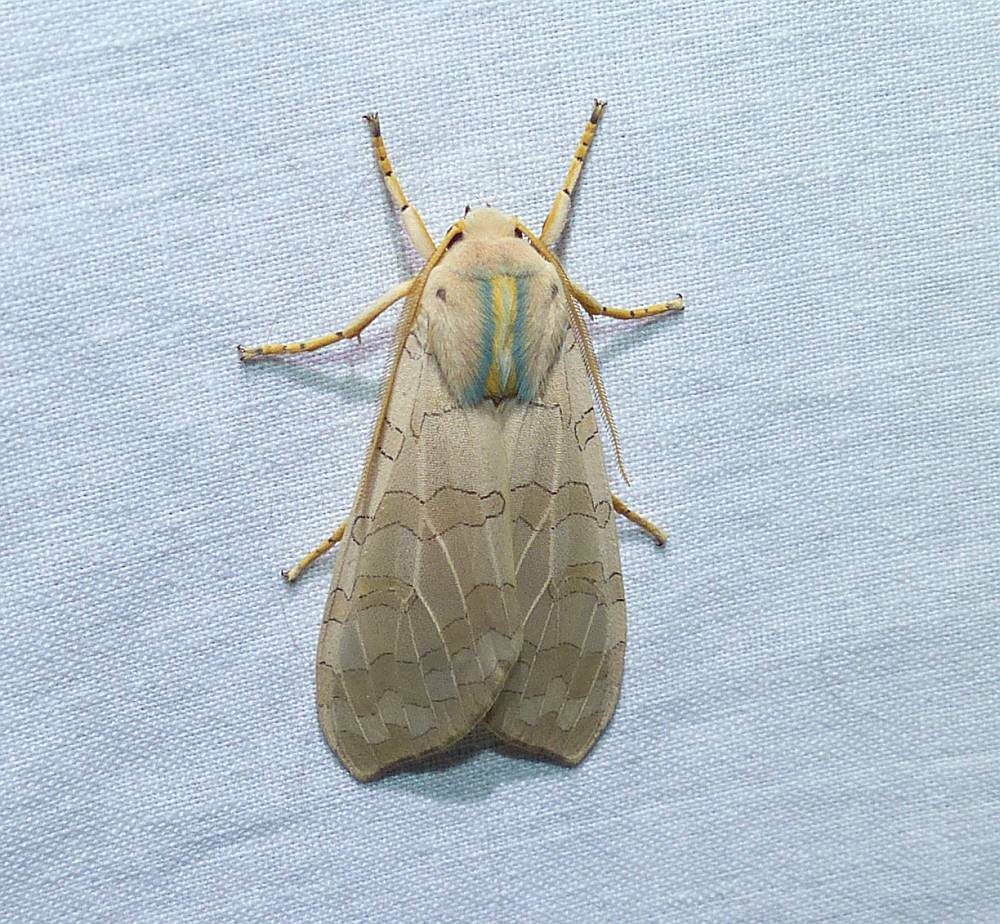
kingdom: Animalia
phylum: Arthropoda
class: Insecta
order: Lepidoptera
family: Erebidae
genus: Halysidota
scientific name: Halysidota tessellaris
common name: Banded tussock moth
